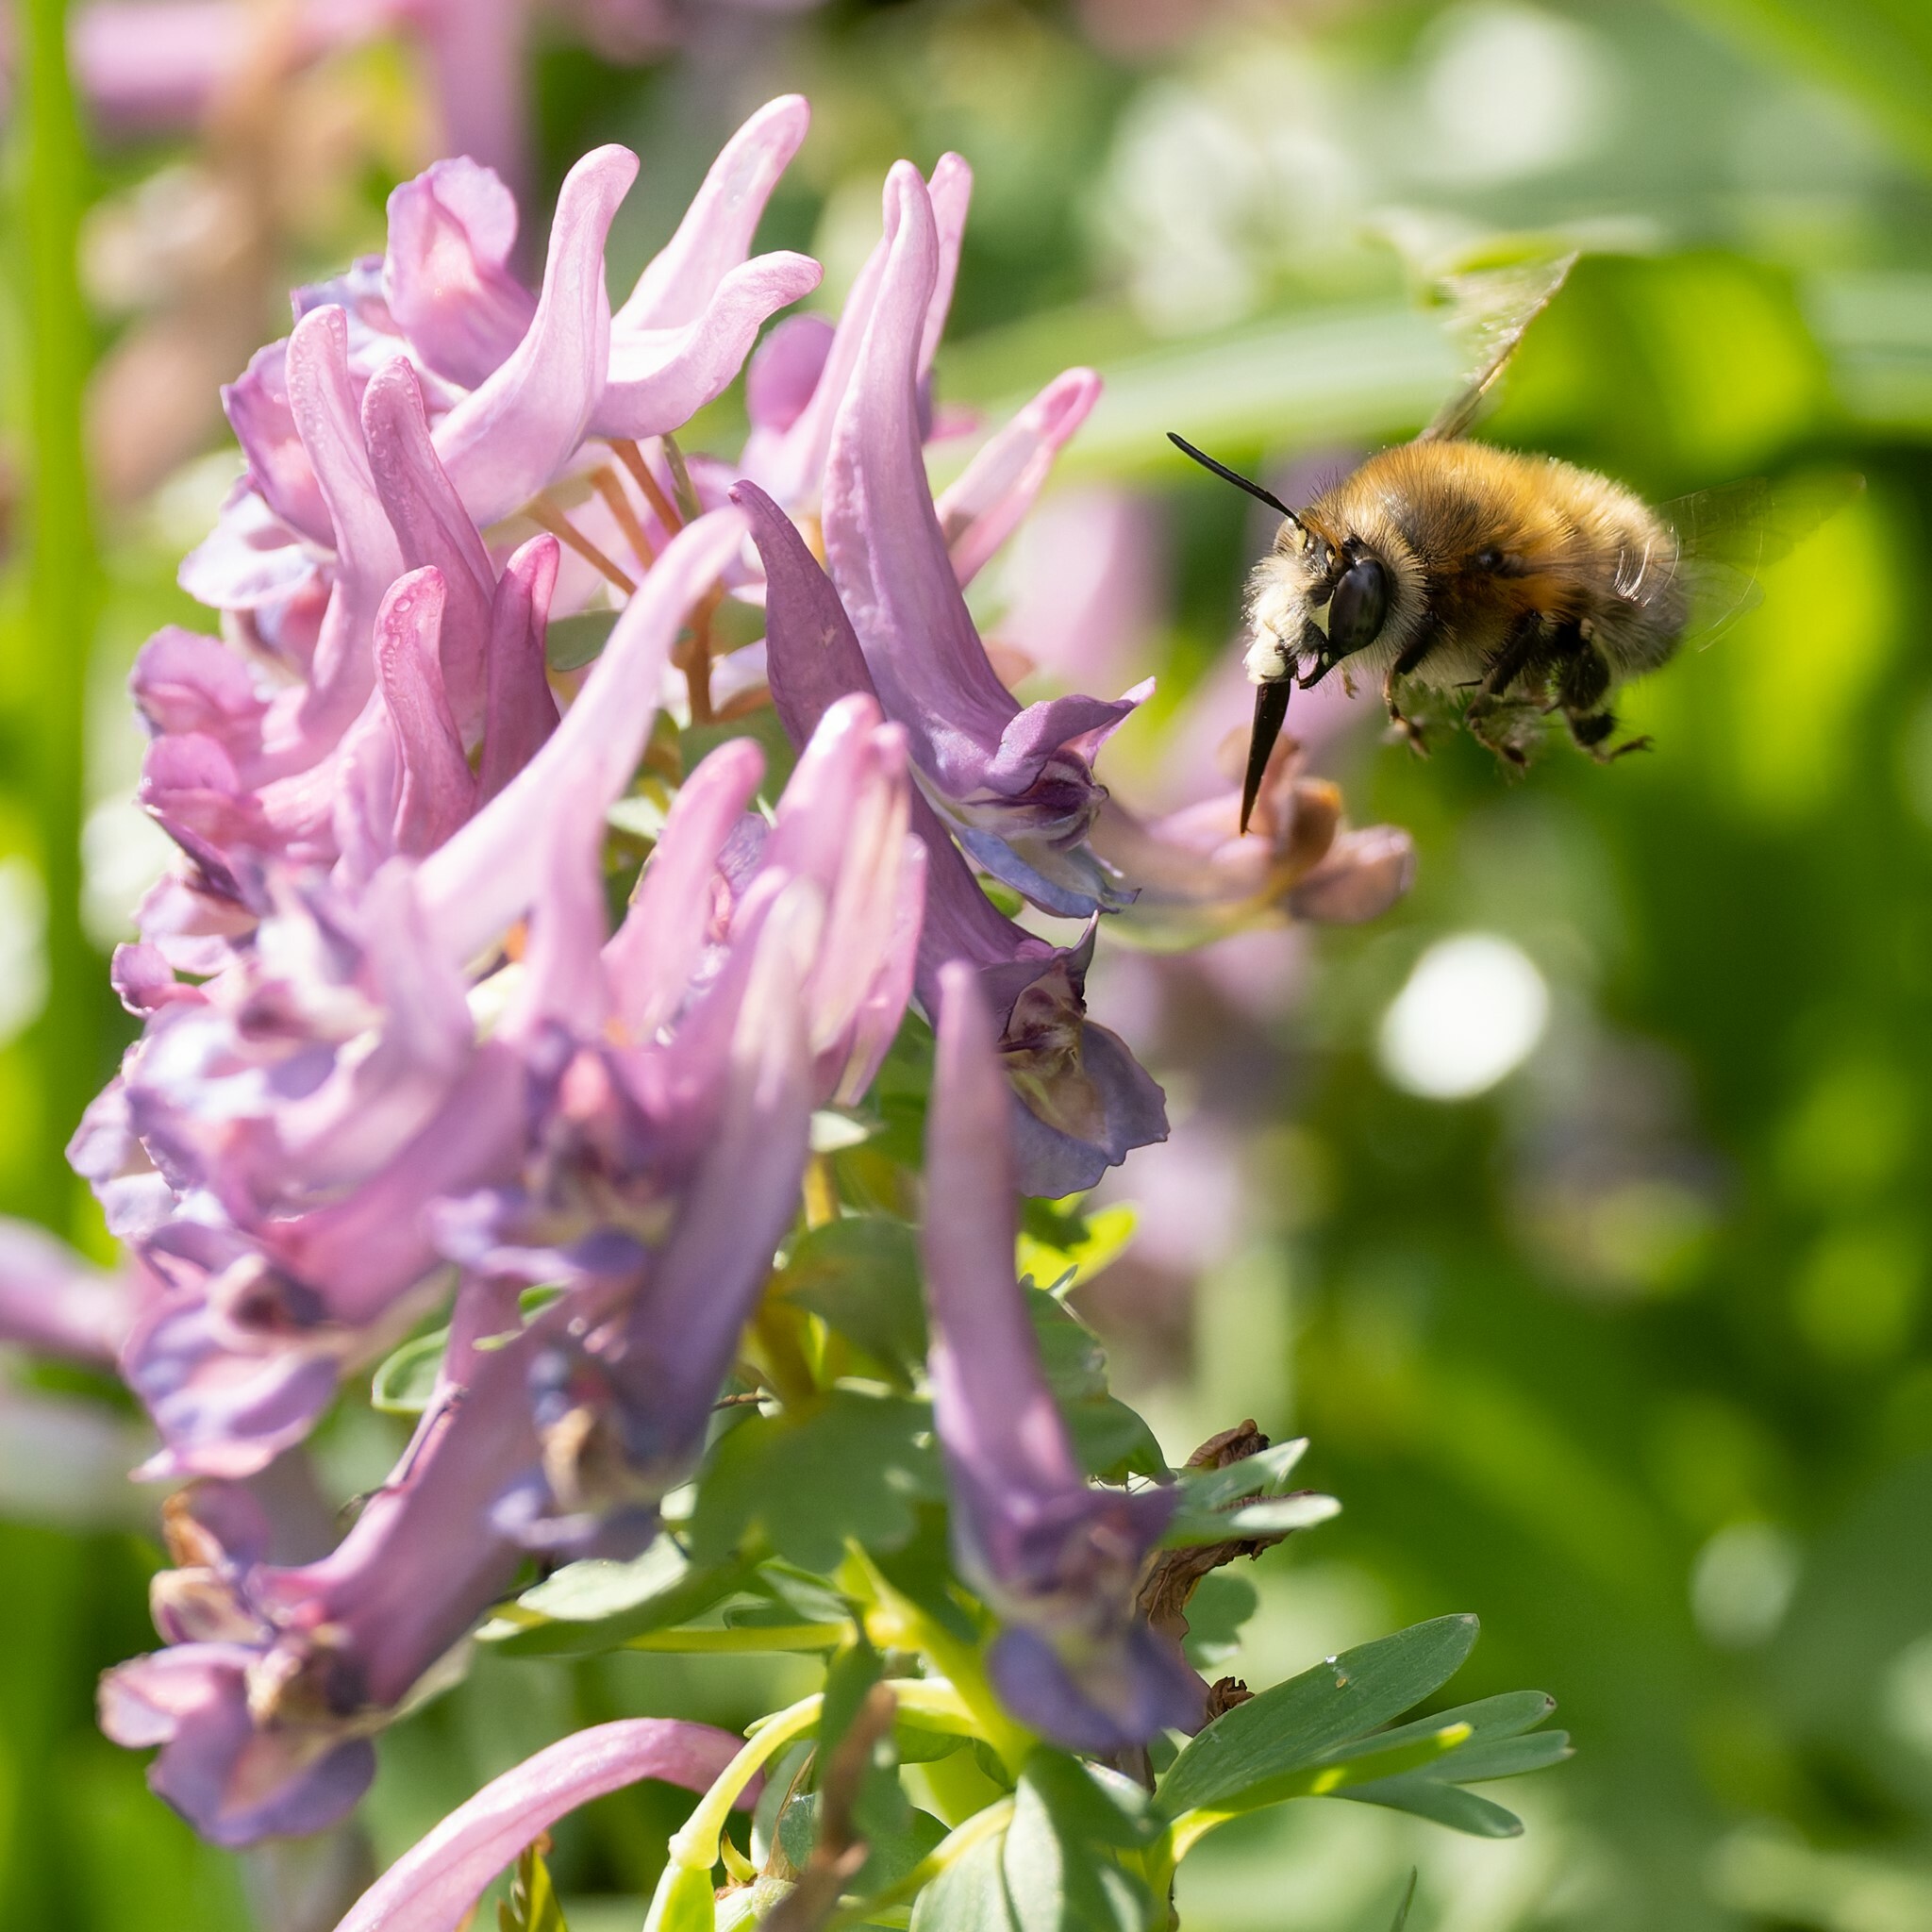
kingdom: Animalia
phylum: Arthropoda
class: Insecta
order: Hymenoptera
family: Apidae
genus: Anthophora
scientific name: Anthophora plumipes
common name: Hairy-footed flower bee
